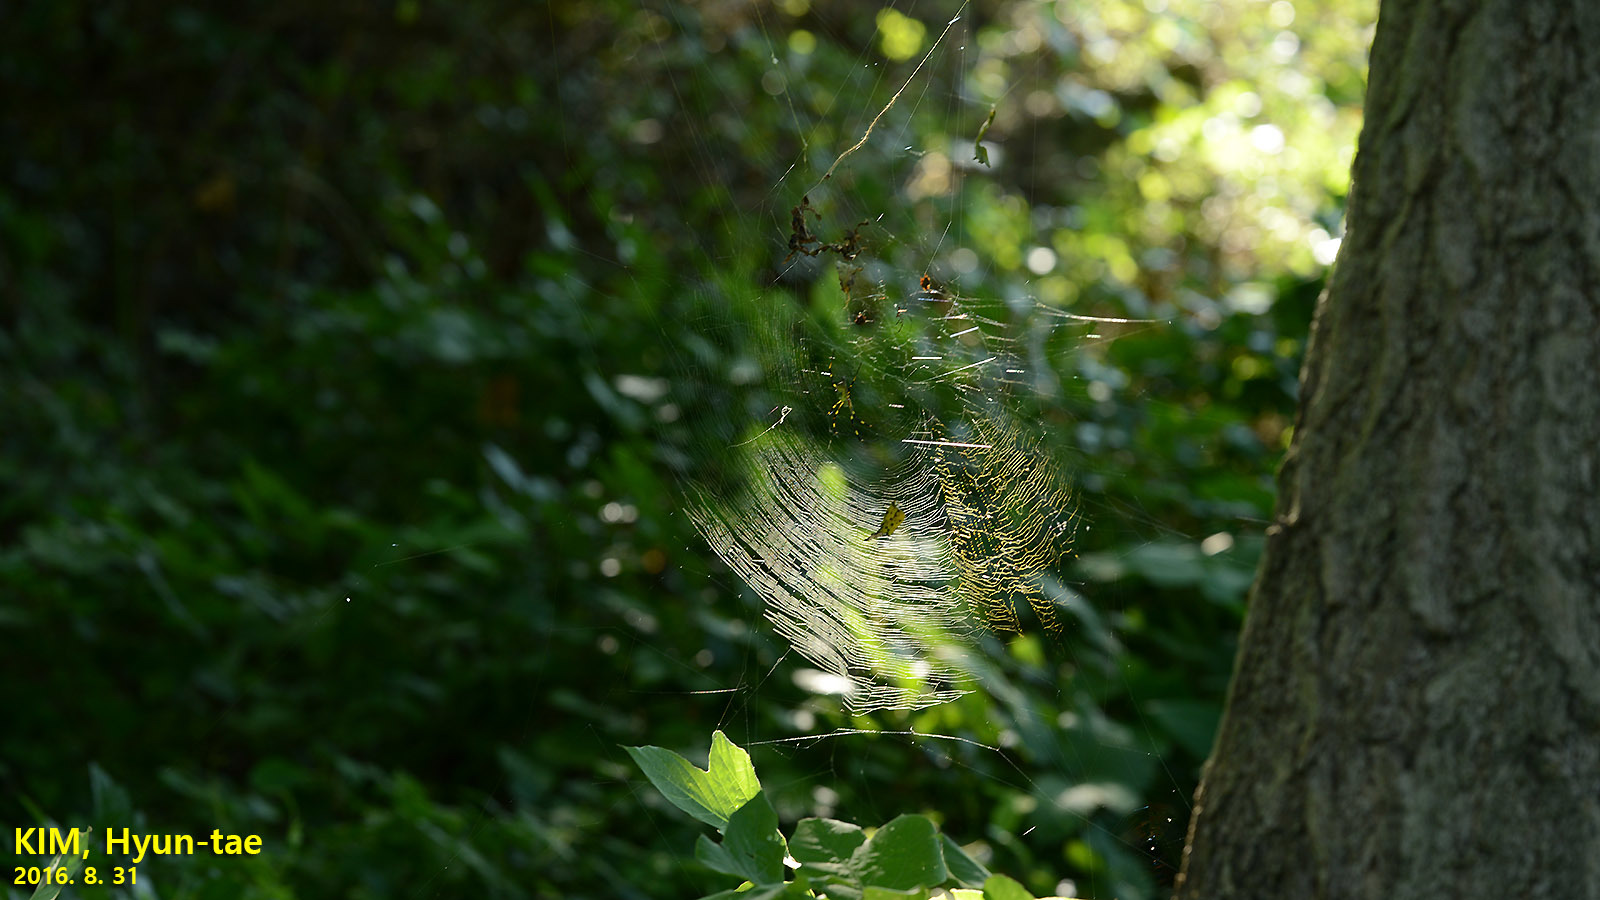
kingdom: Animalia
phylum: Arthropoda
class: Arachnida
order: Araneae
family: Araneidae
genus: Trichonephila
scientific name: Trichonephila clavata
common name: Jorō spider
